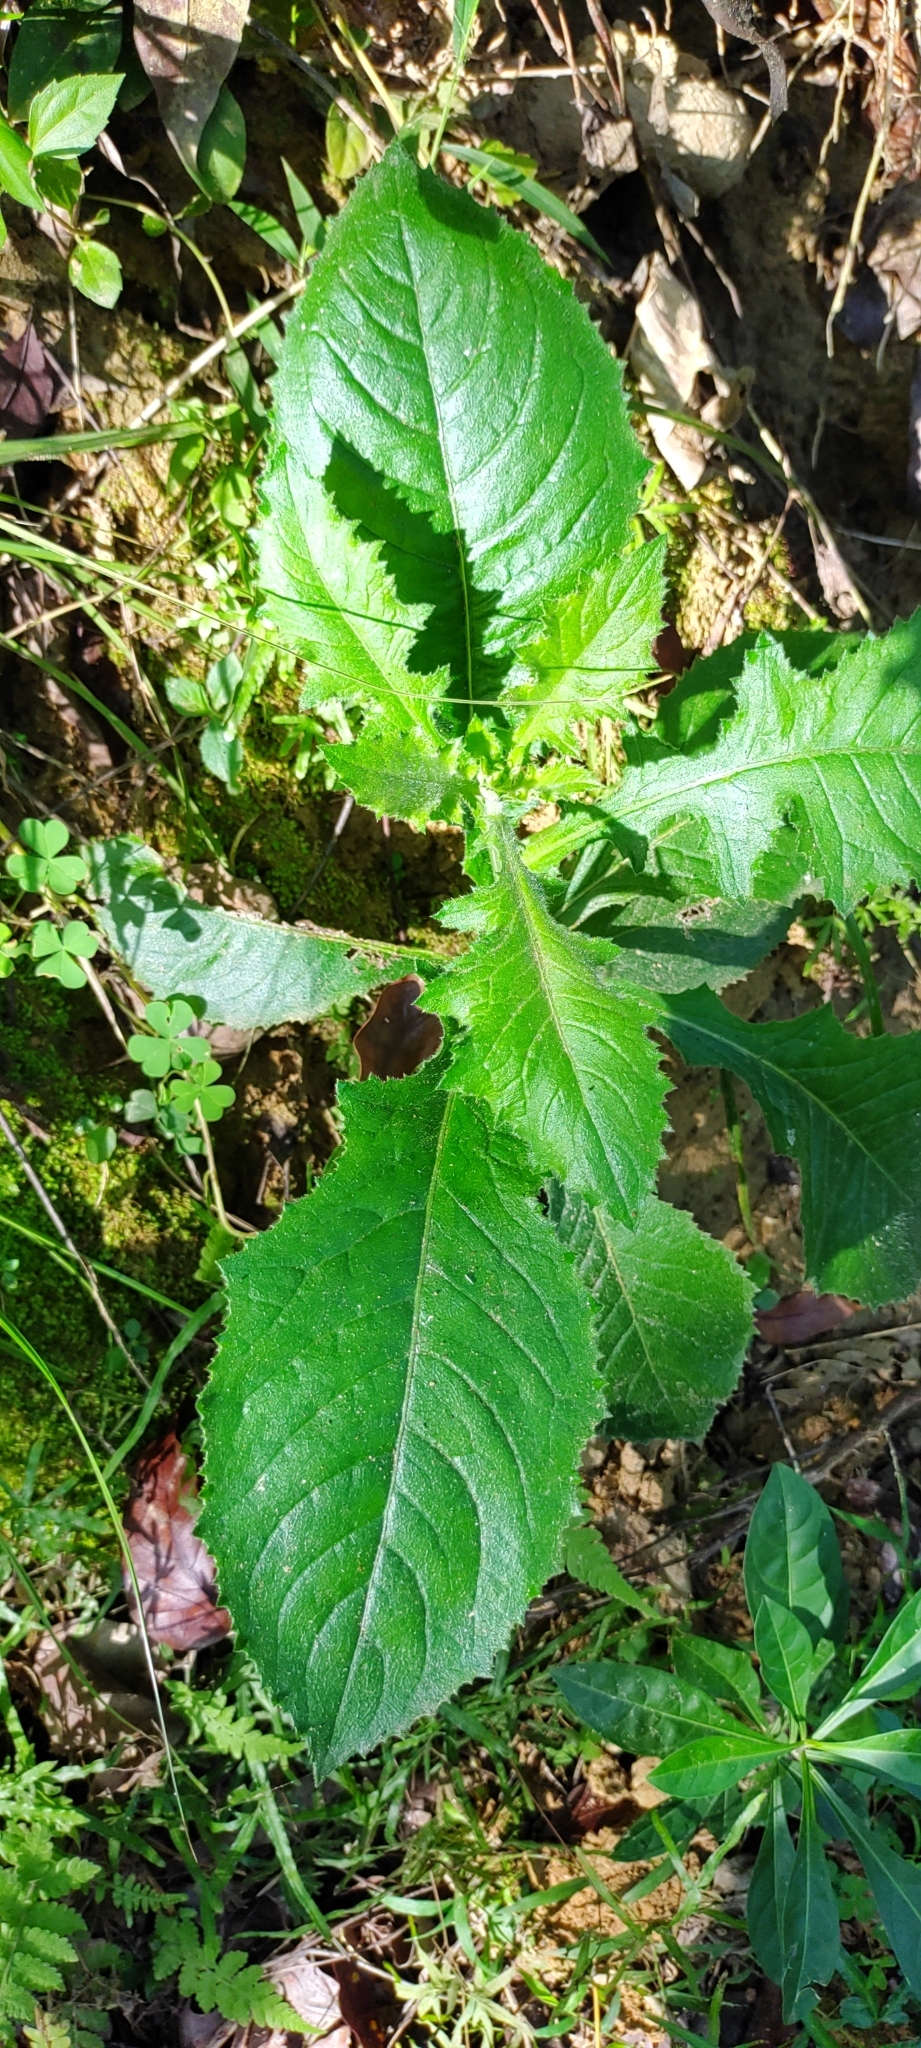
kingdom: Plantae
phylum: Tracheophyta
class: Magnoliopsida
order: Asterales
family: Asteraceae
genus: Blumea
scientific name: Blumea sinuata
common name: Cutleaf false oxtongue
